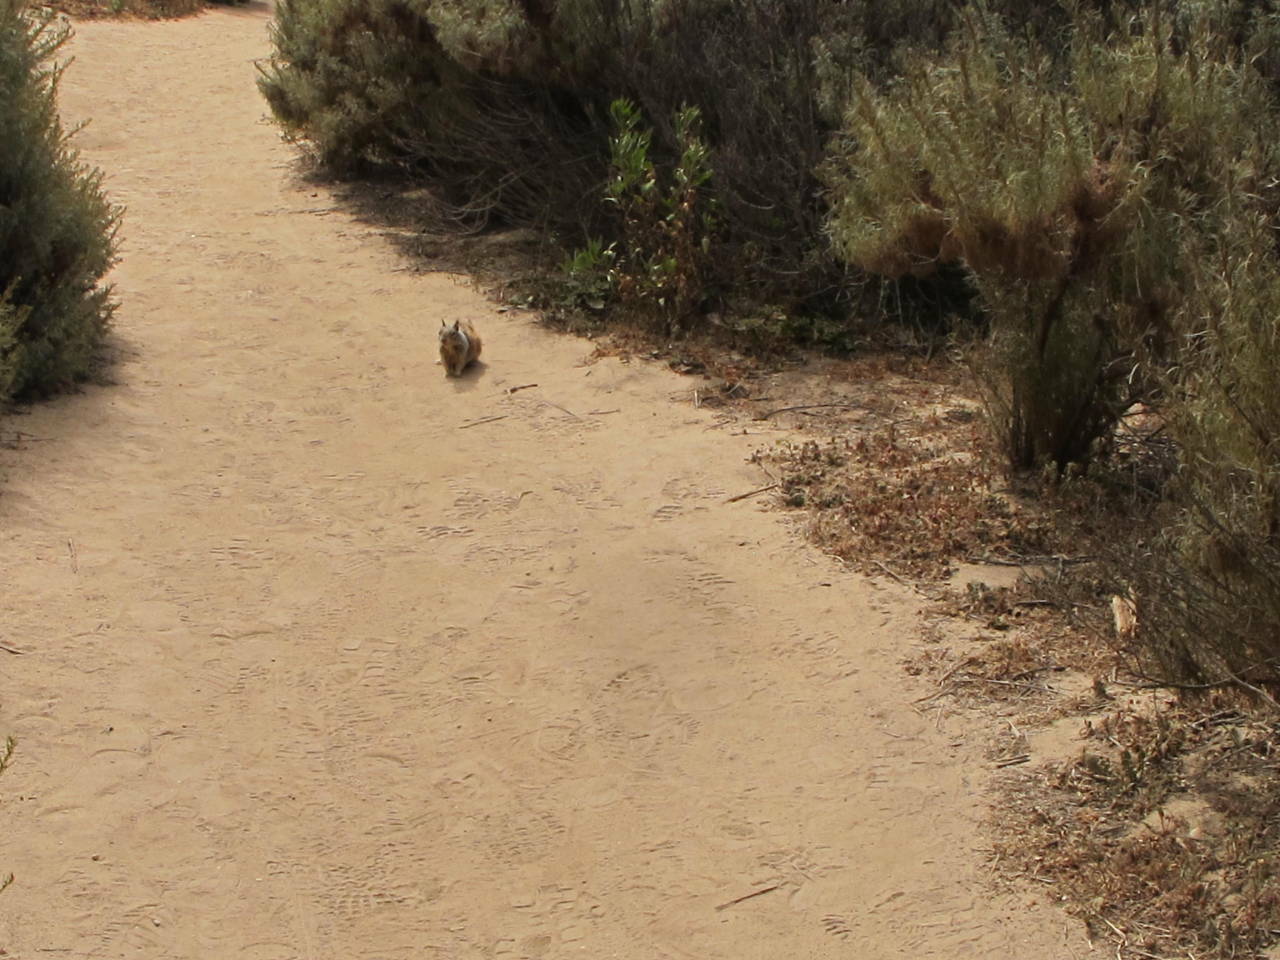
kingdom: Animalia
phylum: Chordata
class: Mammalia
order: Rodentia
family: Sciuridae
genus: Otospermophilus
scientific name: Otospermophilus beecheyi
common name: California ground squirrel
